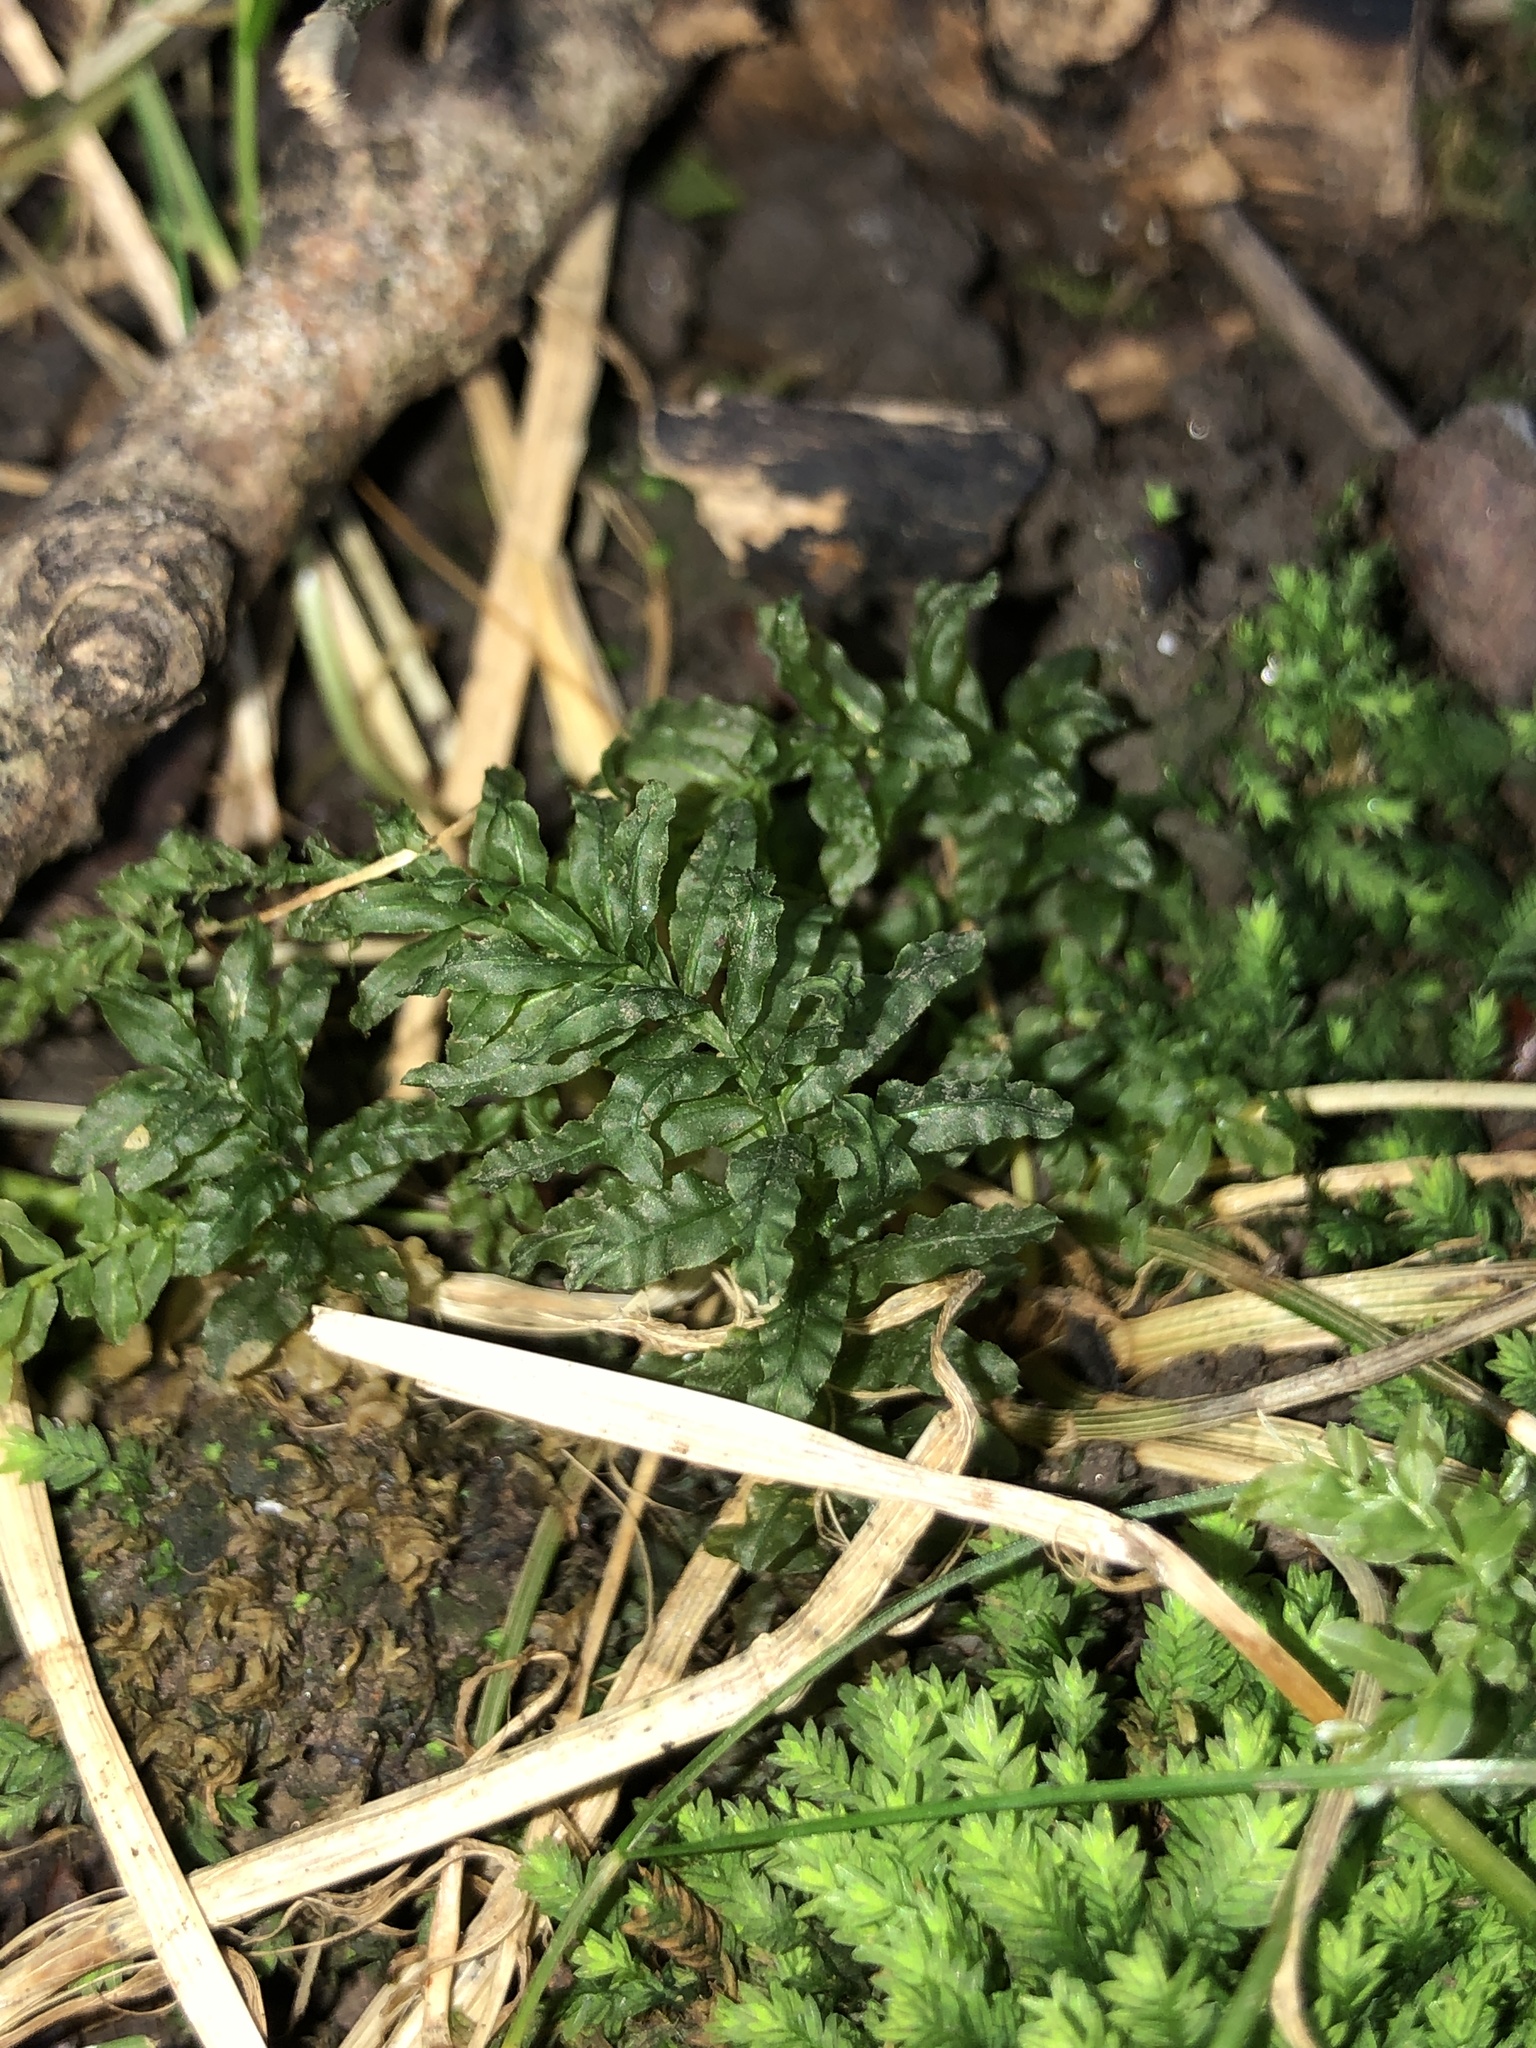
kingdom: Plantae
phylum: Bryophyta
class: Bryopsida
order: Bryales
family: Mniaceae
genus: Plagiomnium
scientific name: Plagiomnium undulatum
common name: Hart's-tongue thyme-moss
